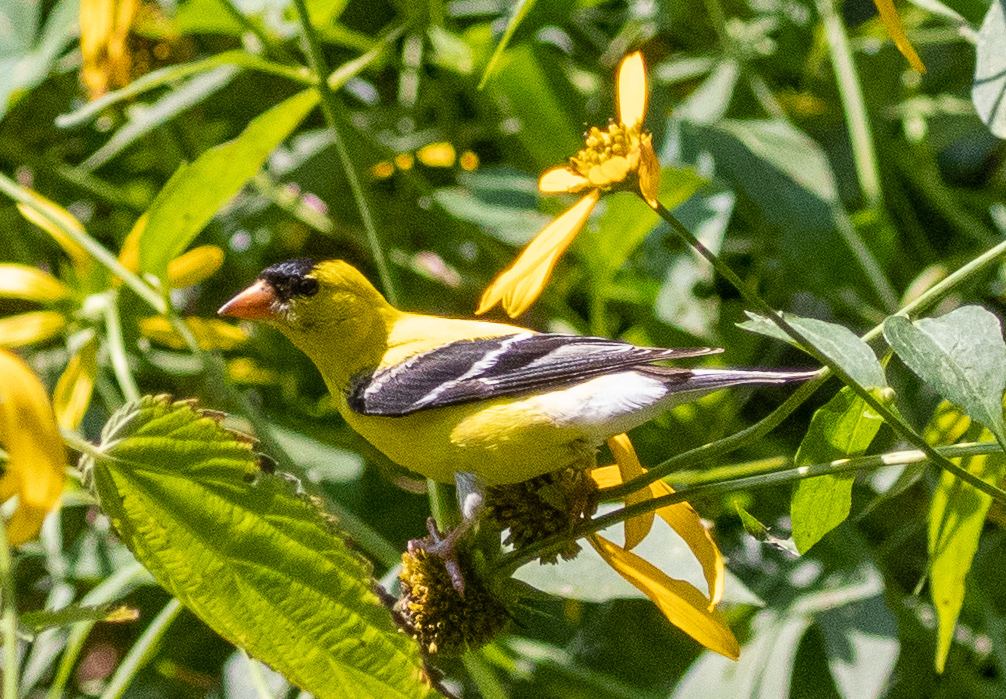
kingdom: Animalia
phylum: Chordata
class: Aves
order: Passeriformes
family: Fringillidae
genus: Spinus
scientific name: Spinus tristis
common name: American goldfinch
